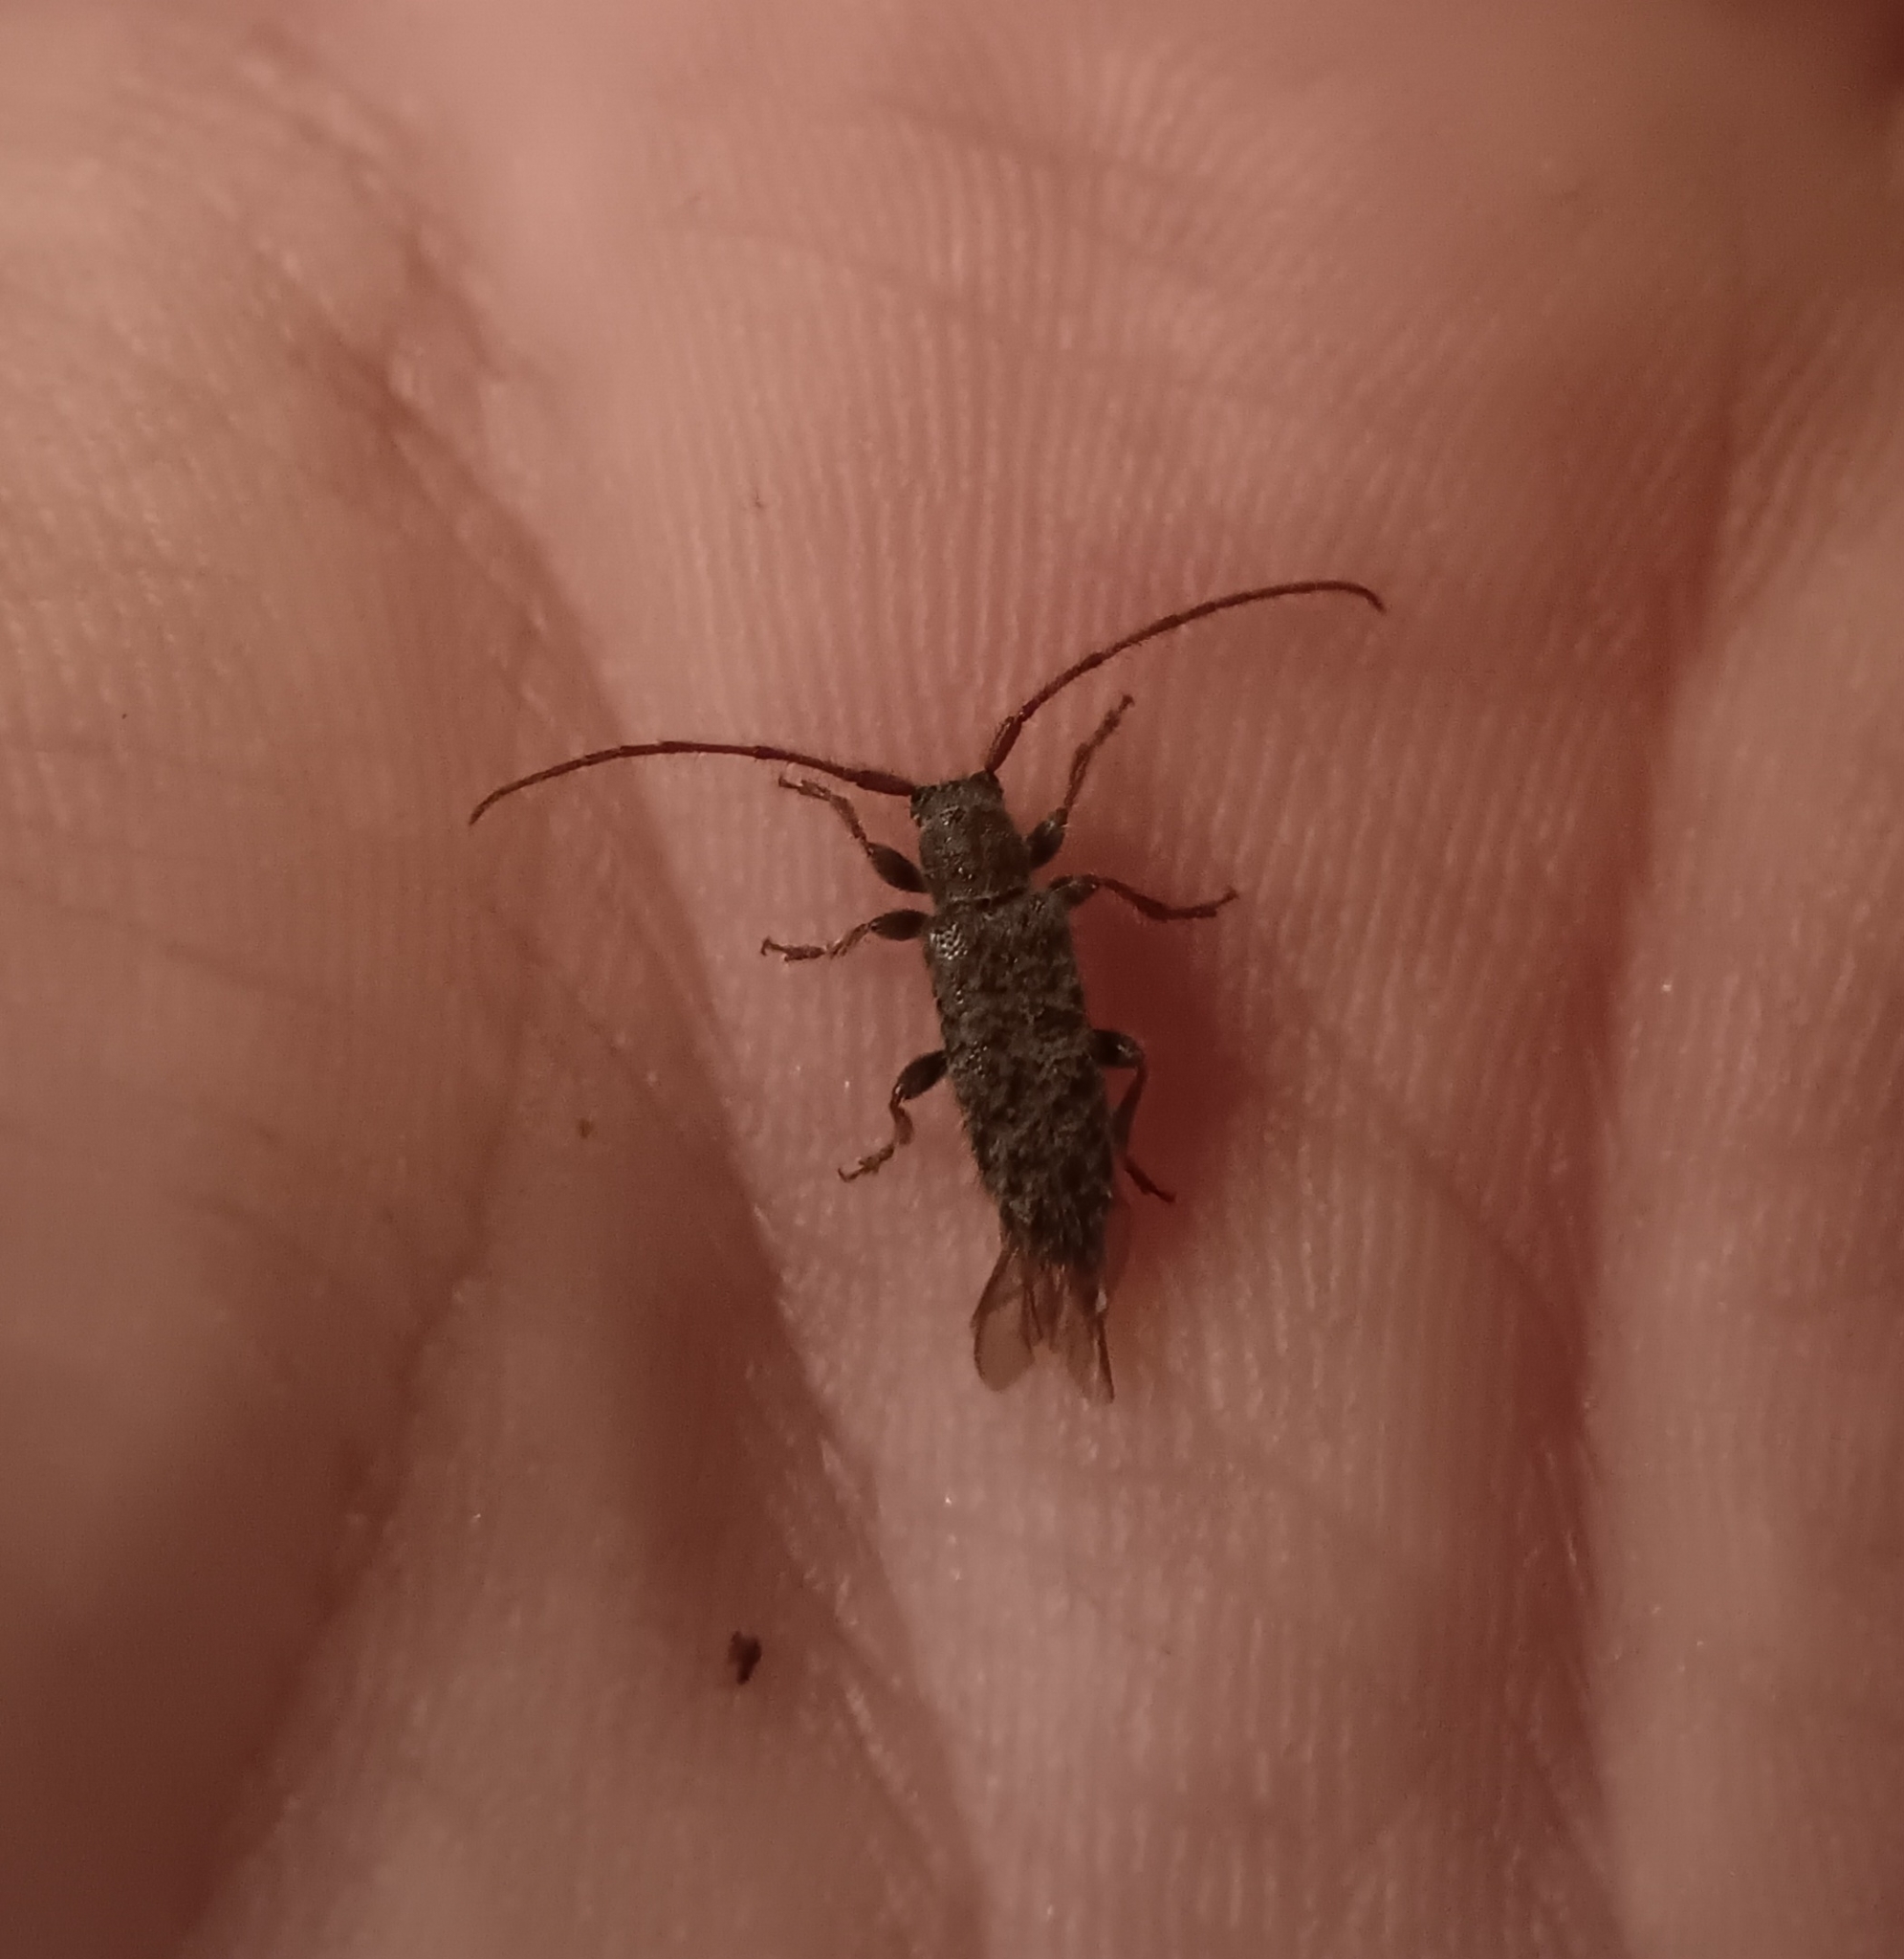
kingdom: Animalia
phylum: Arthropoda
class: Insecta
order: Coleoptera
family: Cerambycidae
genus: Eupogonius
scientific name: Eupogonius pauper
